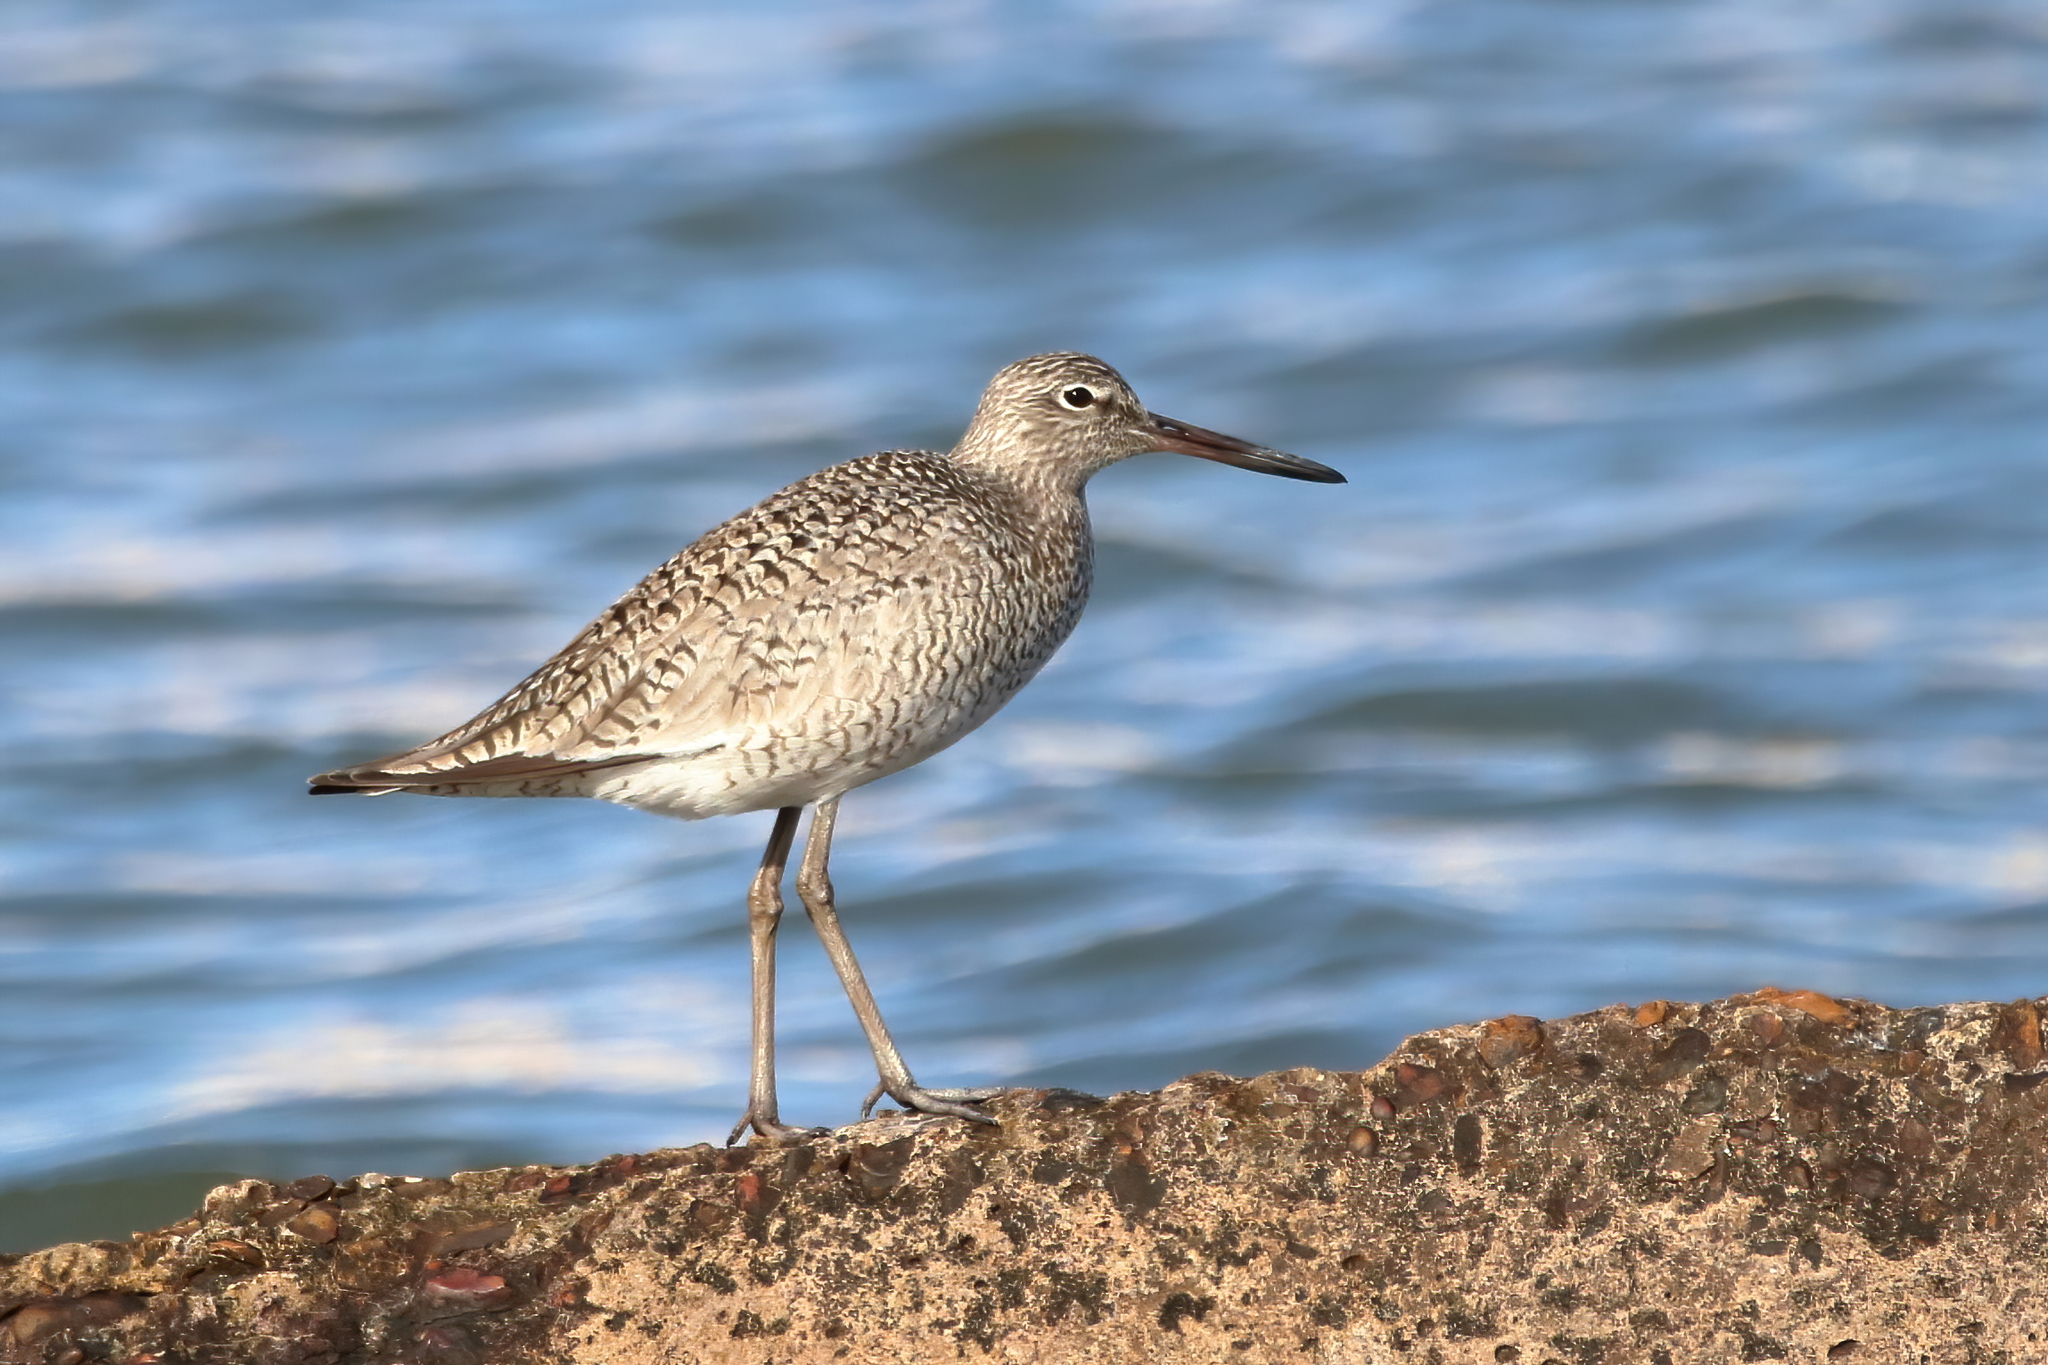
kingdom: Animalia
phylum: Chordata
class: Aves
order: Charadriiformes
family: Scolopacidae
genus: Tringa
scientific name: Tringa semipalmata
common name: Willet
